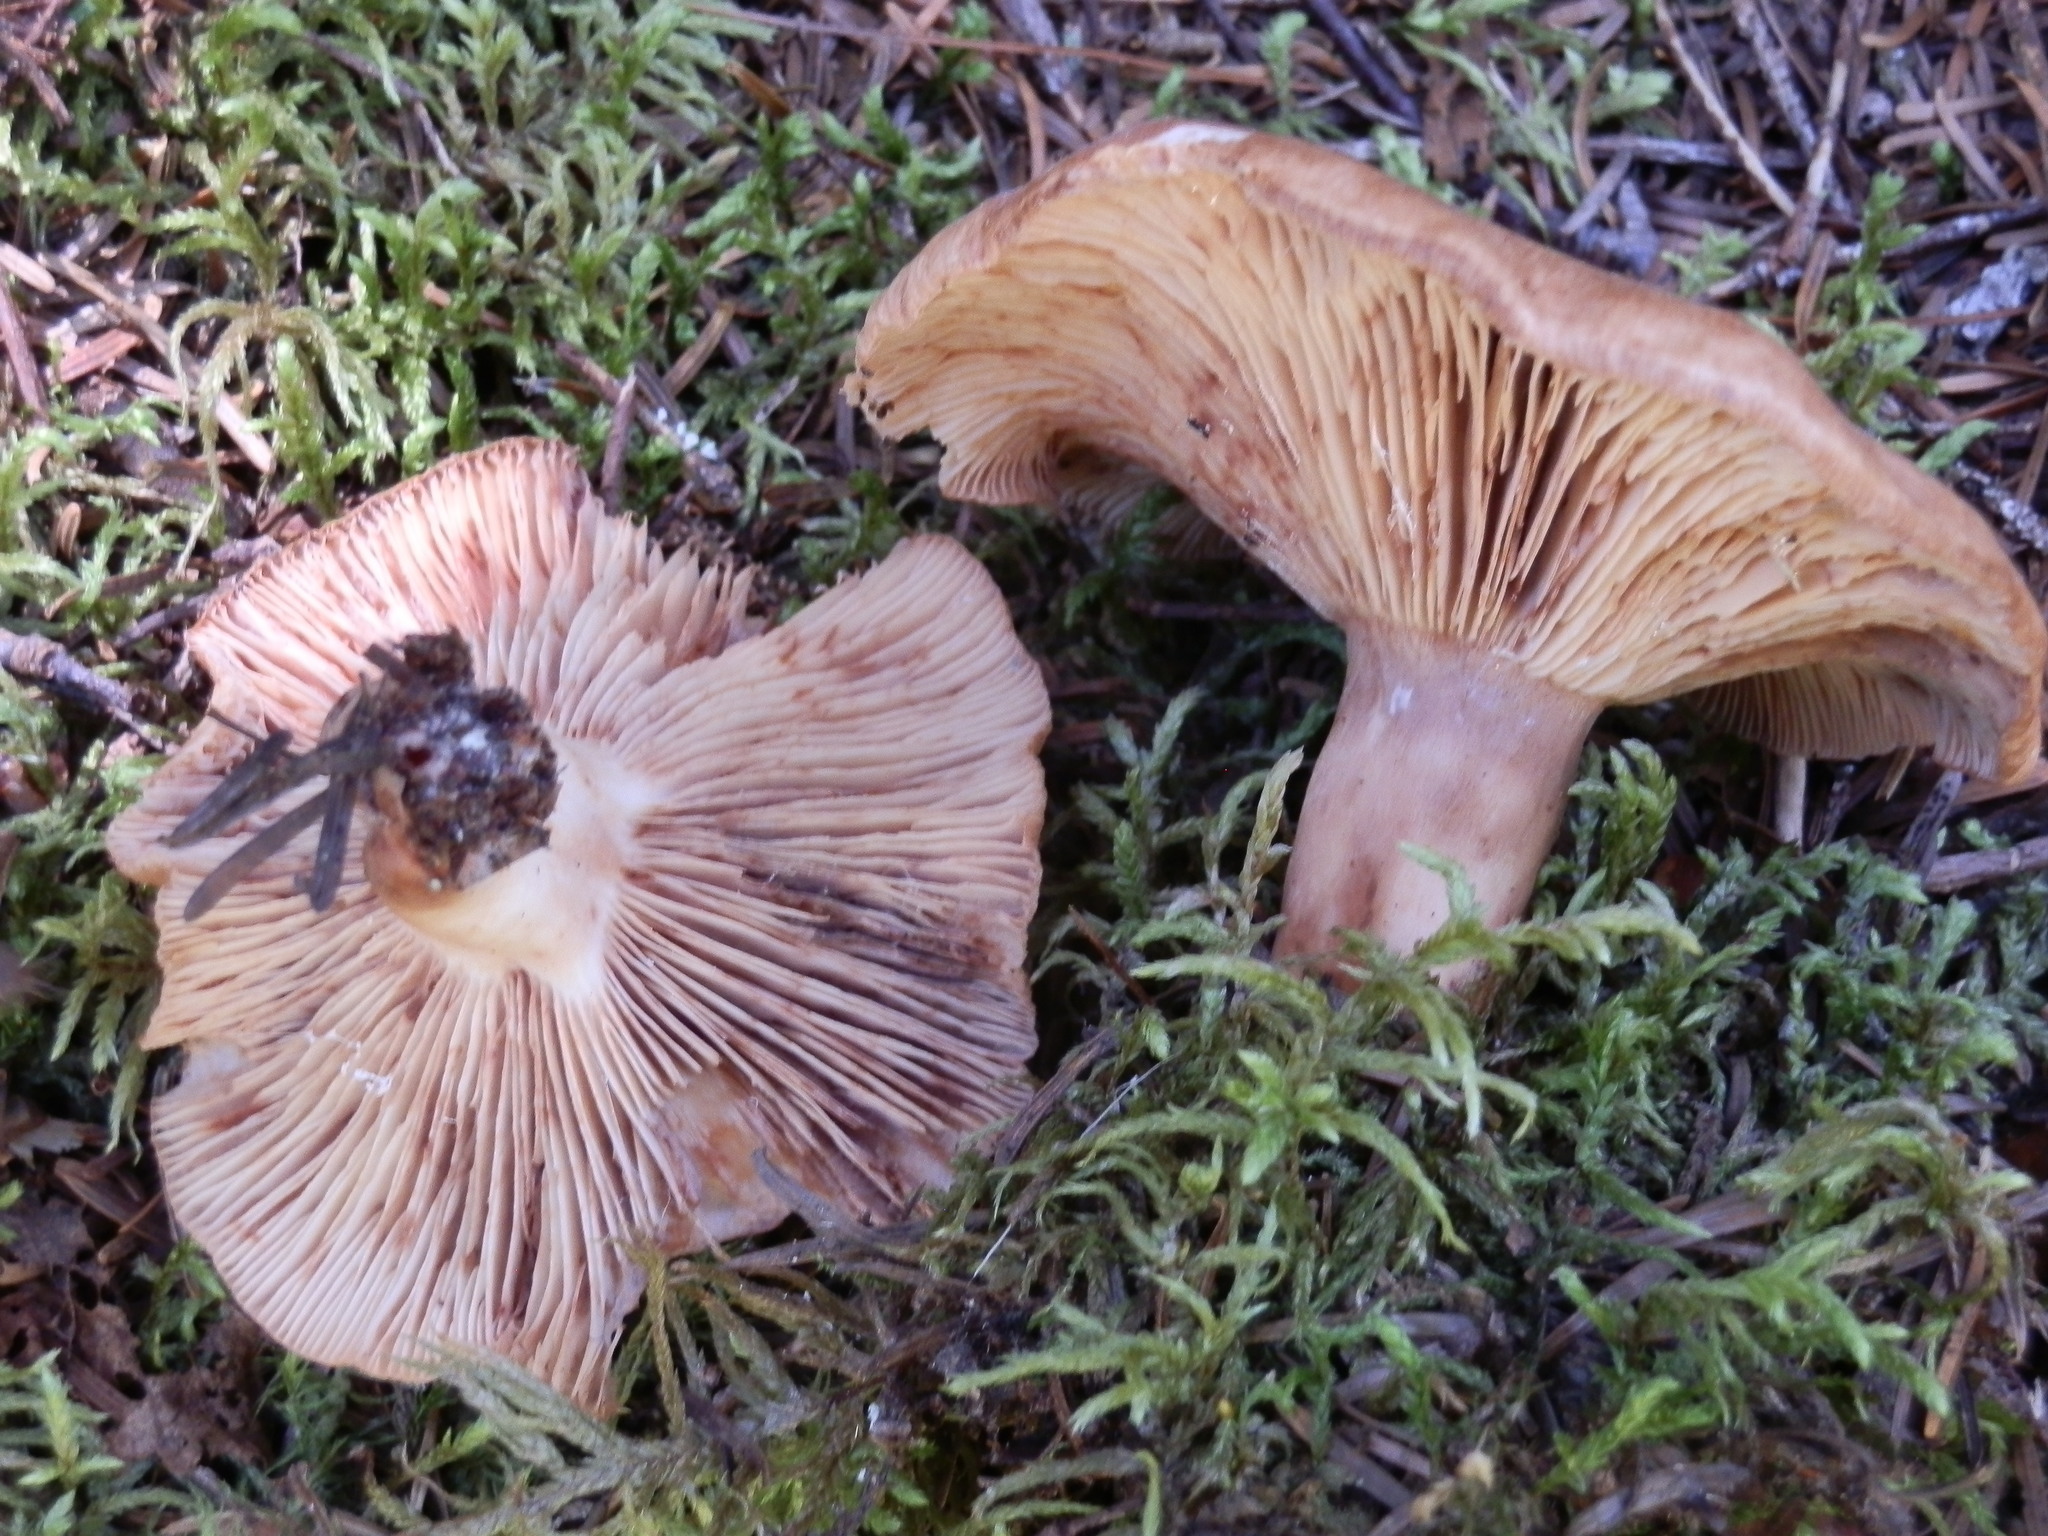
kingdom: Fungi
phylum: Basidiomycota
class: Agaricomycetes
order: Russulales
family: Russulaceae
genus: Lactarius
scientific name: Lactarius vinaceorufescens
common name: Yellow-latex milkcap
